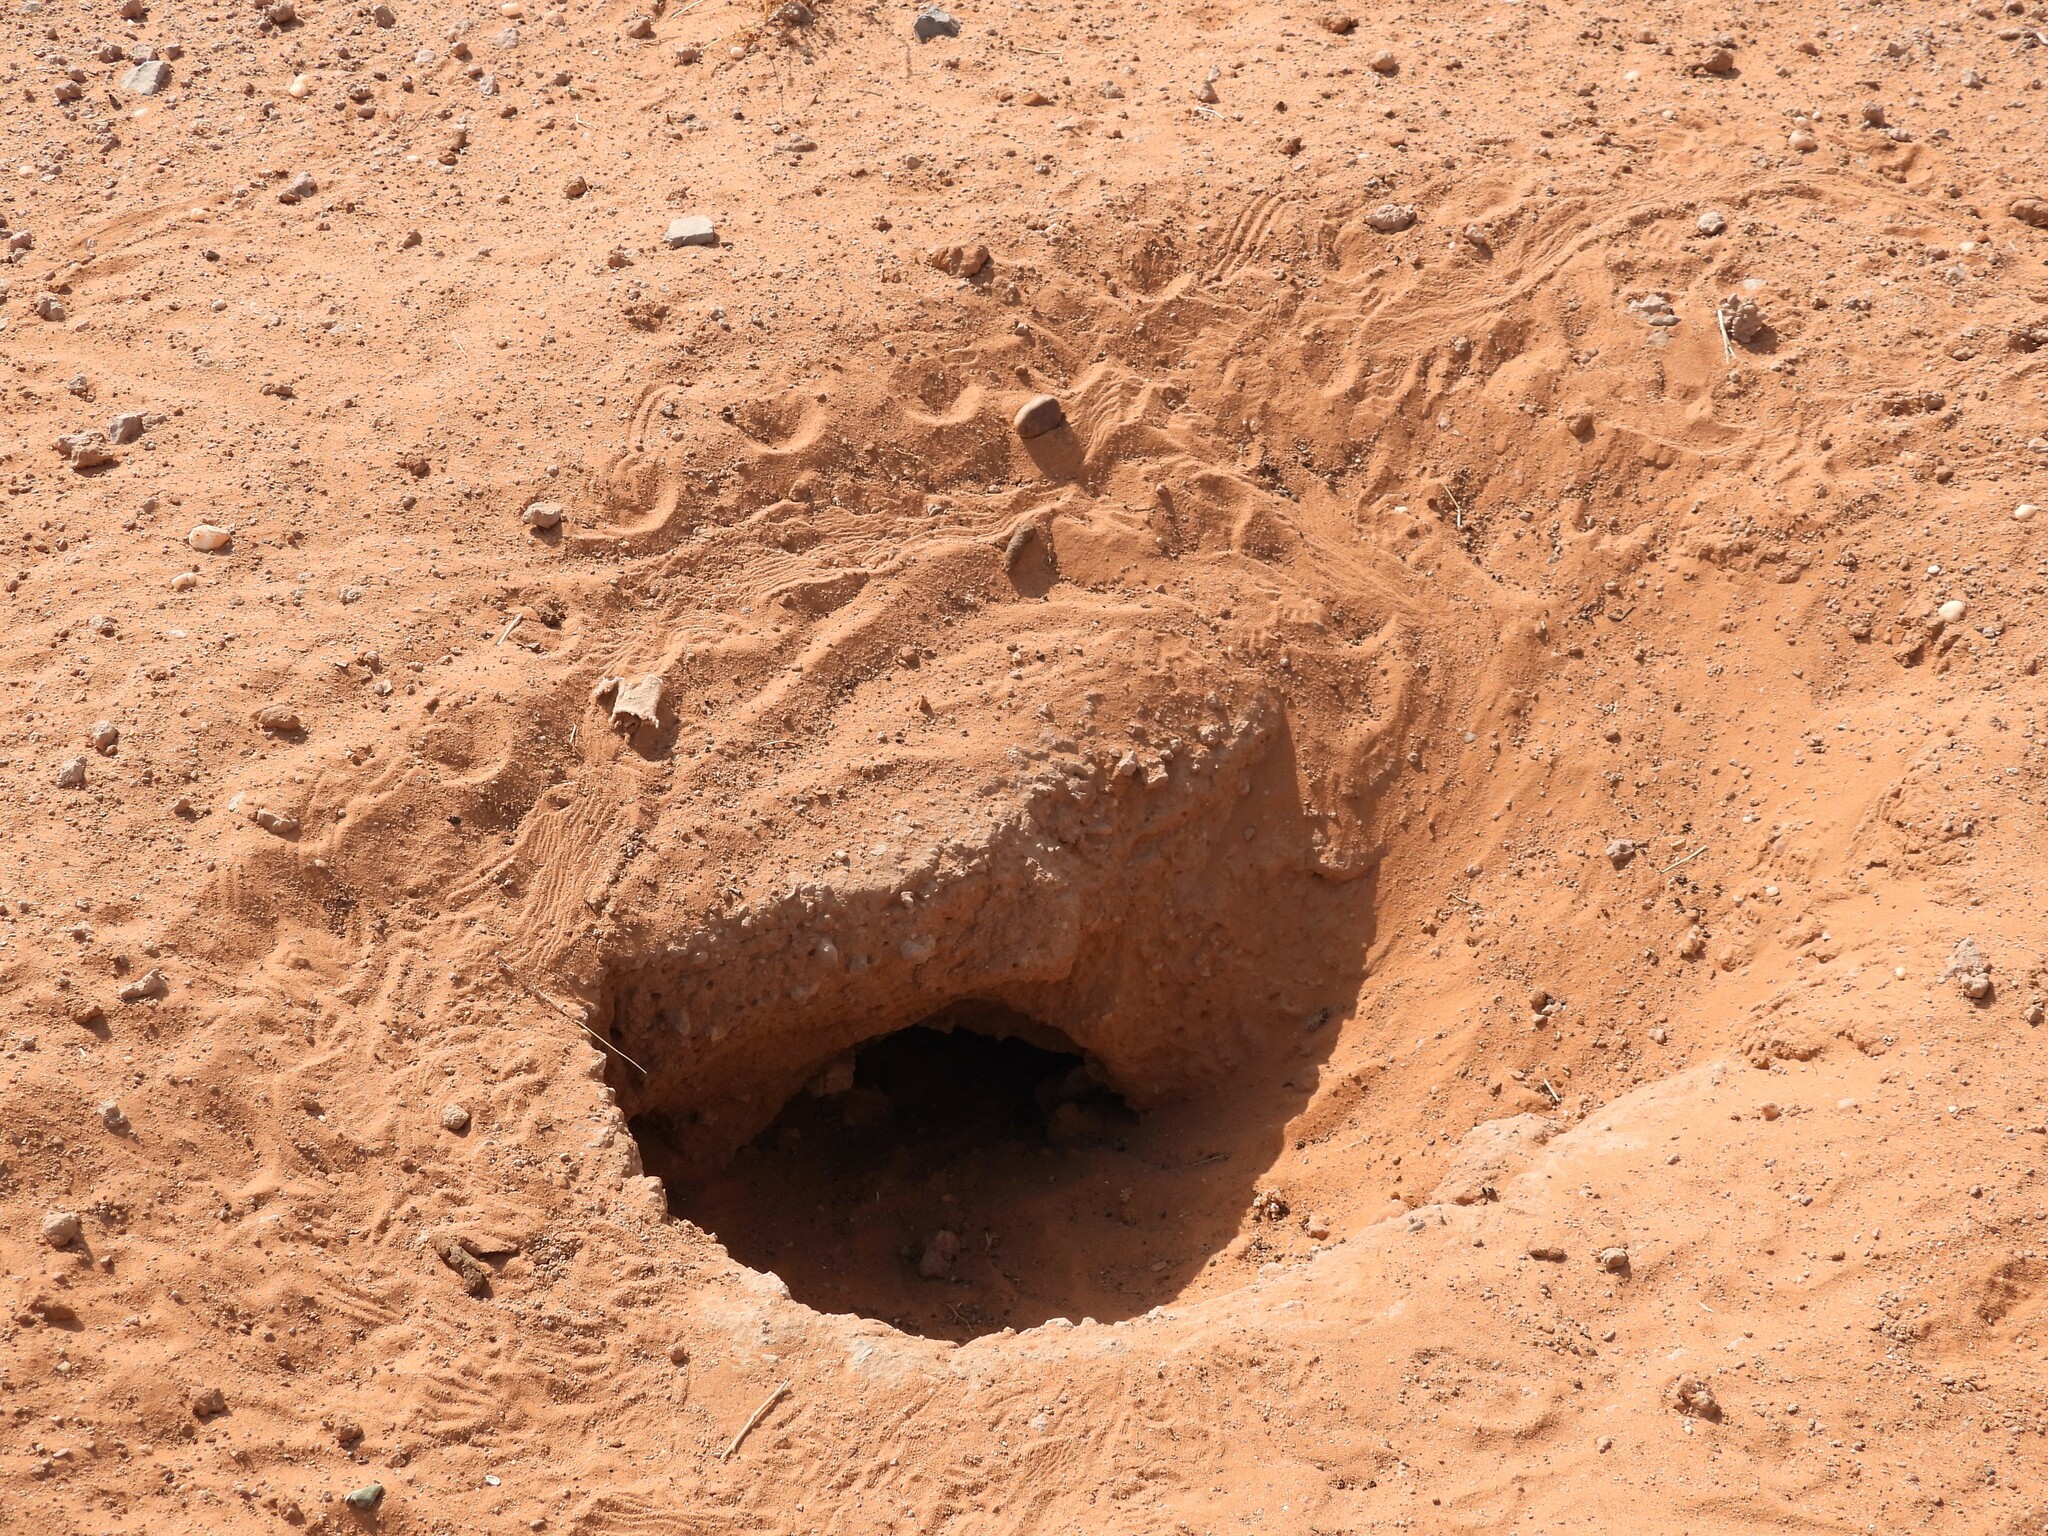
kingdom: Animalia
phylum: Chordata
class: Squamata
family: Agamidae
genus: Uromastyx
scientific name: Uromastyx aegyptia
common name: Egyptian mastigure
